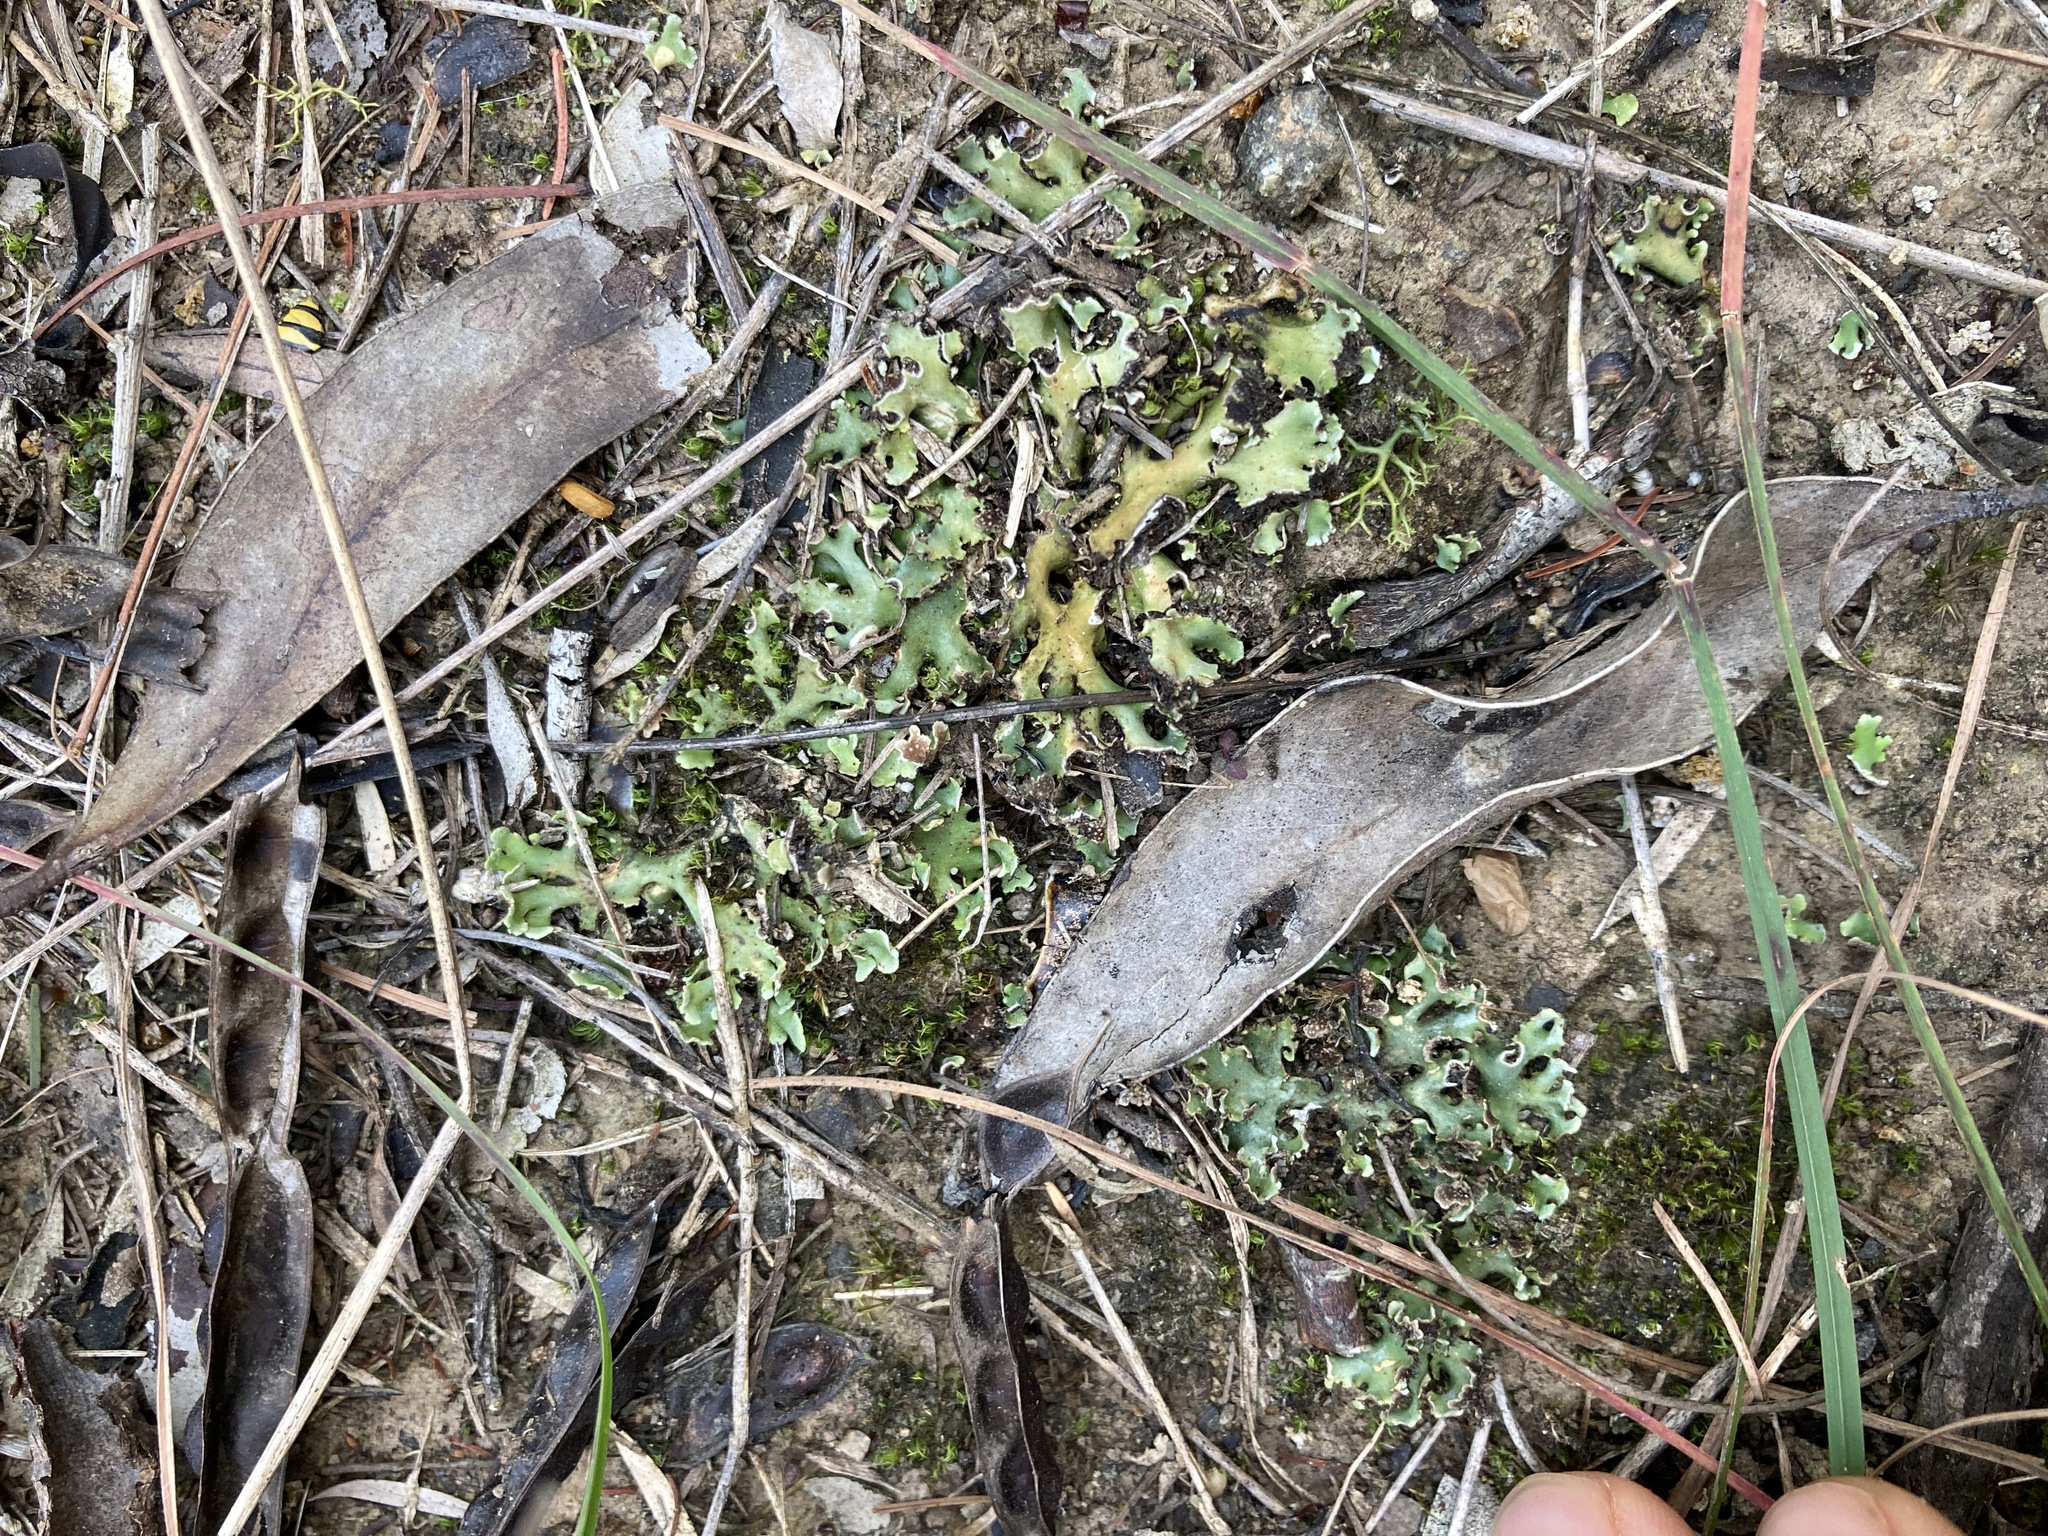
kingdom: Fungi
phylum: Ascomycota
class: Lecanoromycetes
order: Lecanorales
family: Cladoniaceae
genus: Cladia
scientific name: Cladia muelleri
